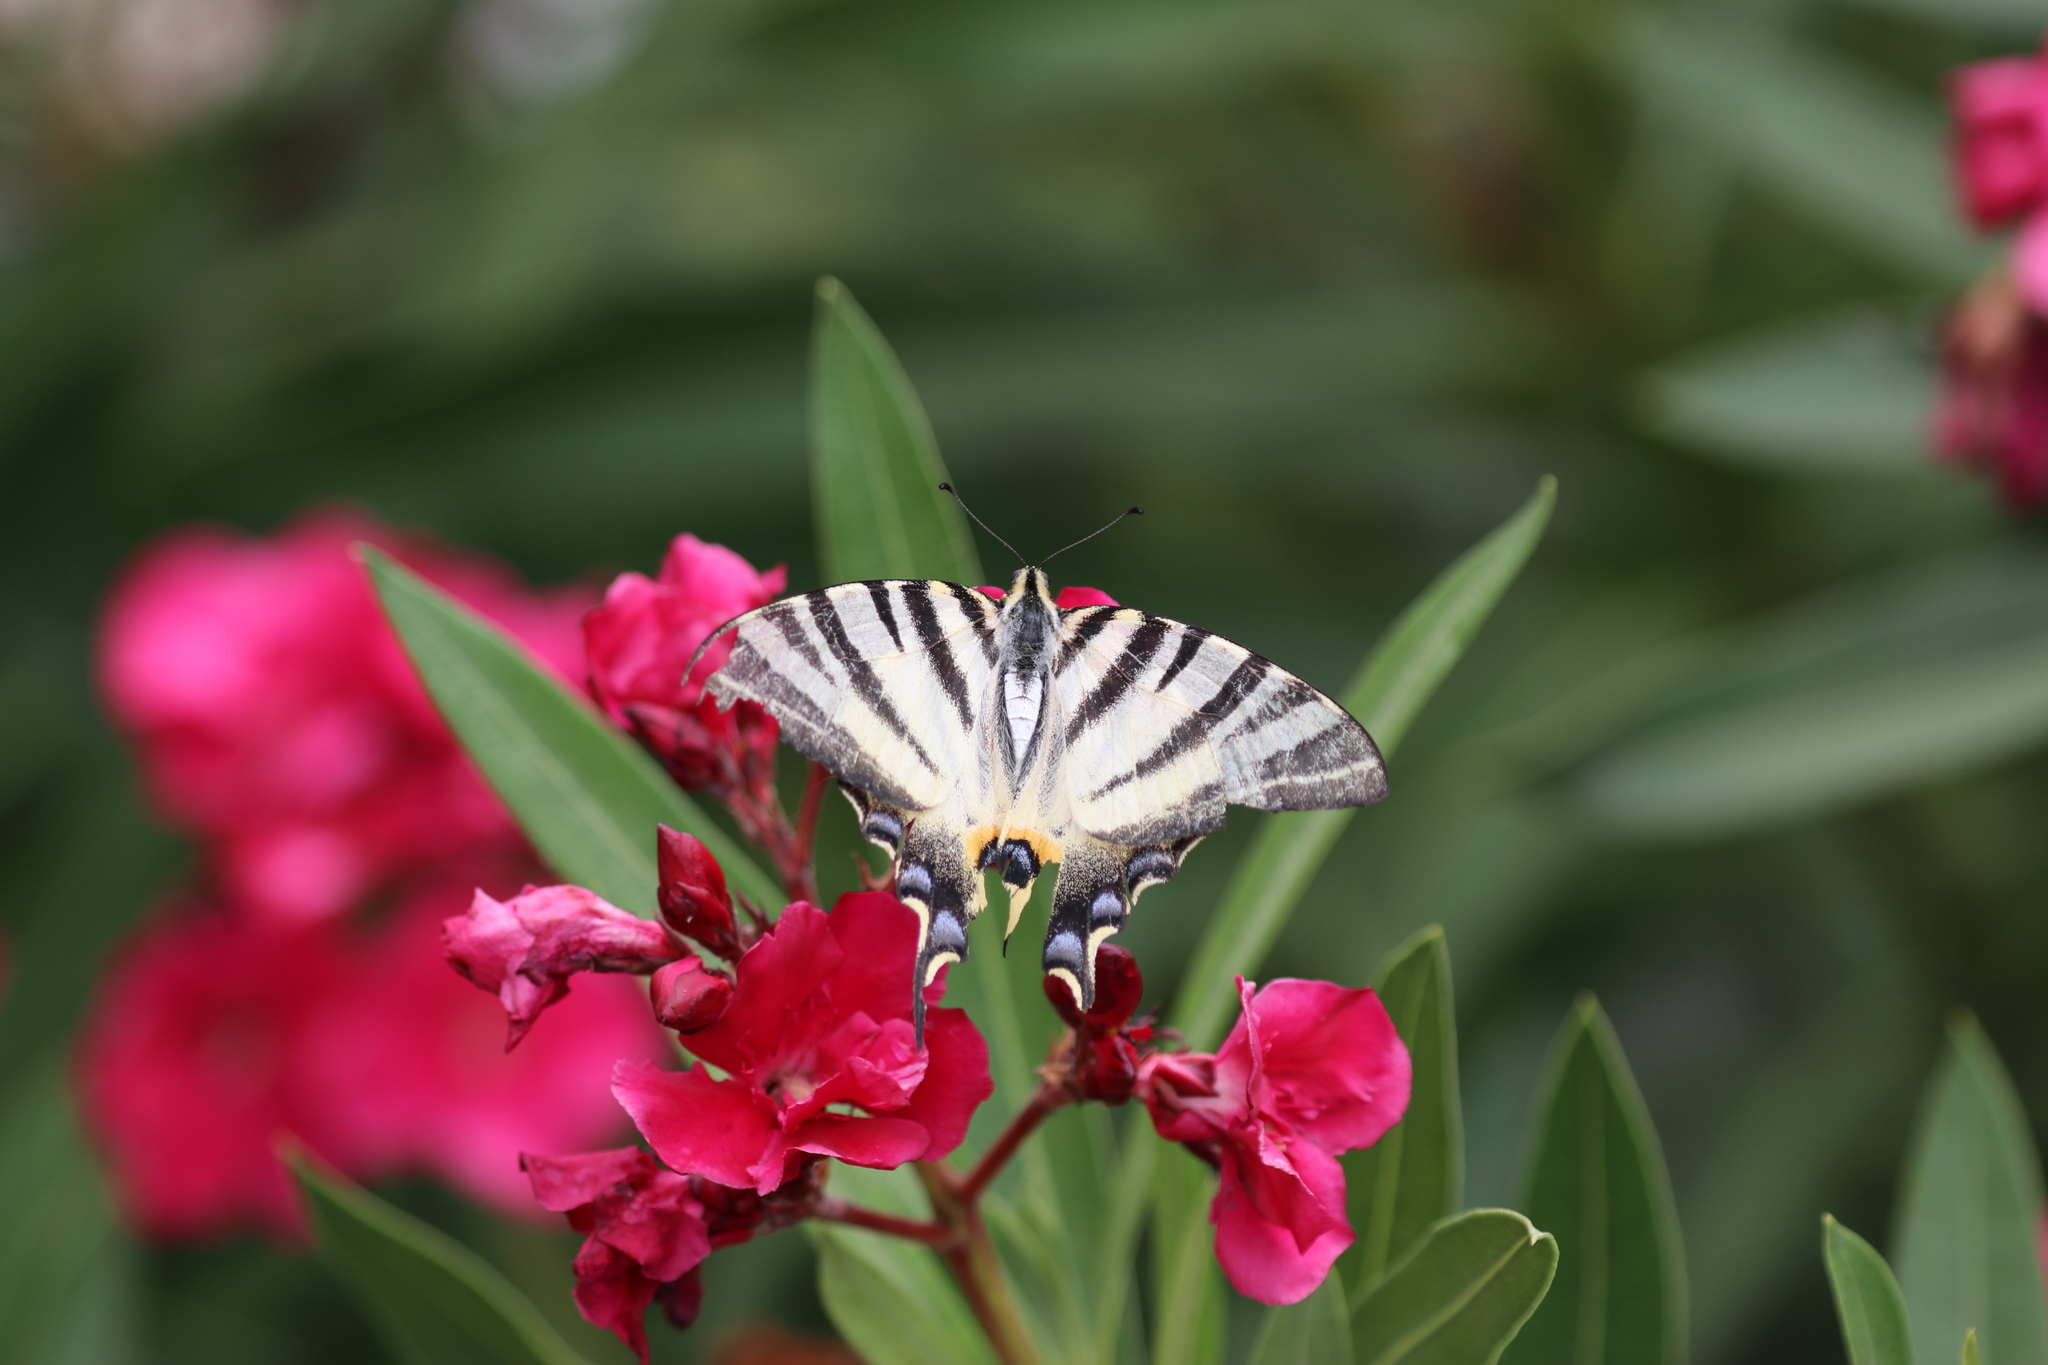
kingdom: Animalia
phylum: Arthropoda
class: Insecta
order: Lepidoptera
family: Papilionidae
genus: Iphiclides
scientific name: Iphiclides podalirius
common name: Scarce swallowtail
